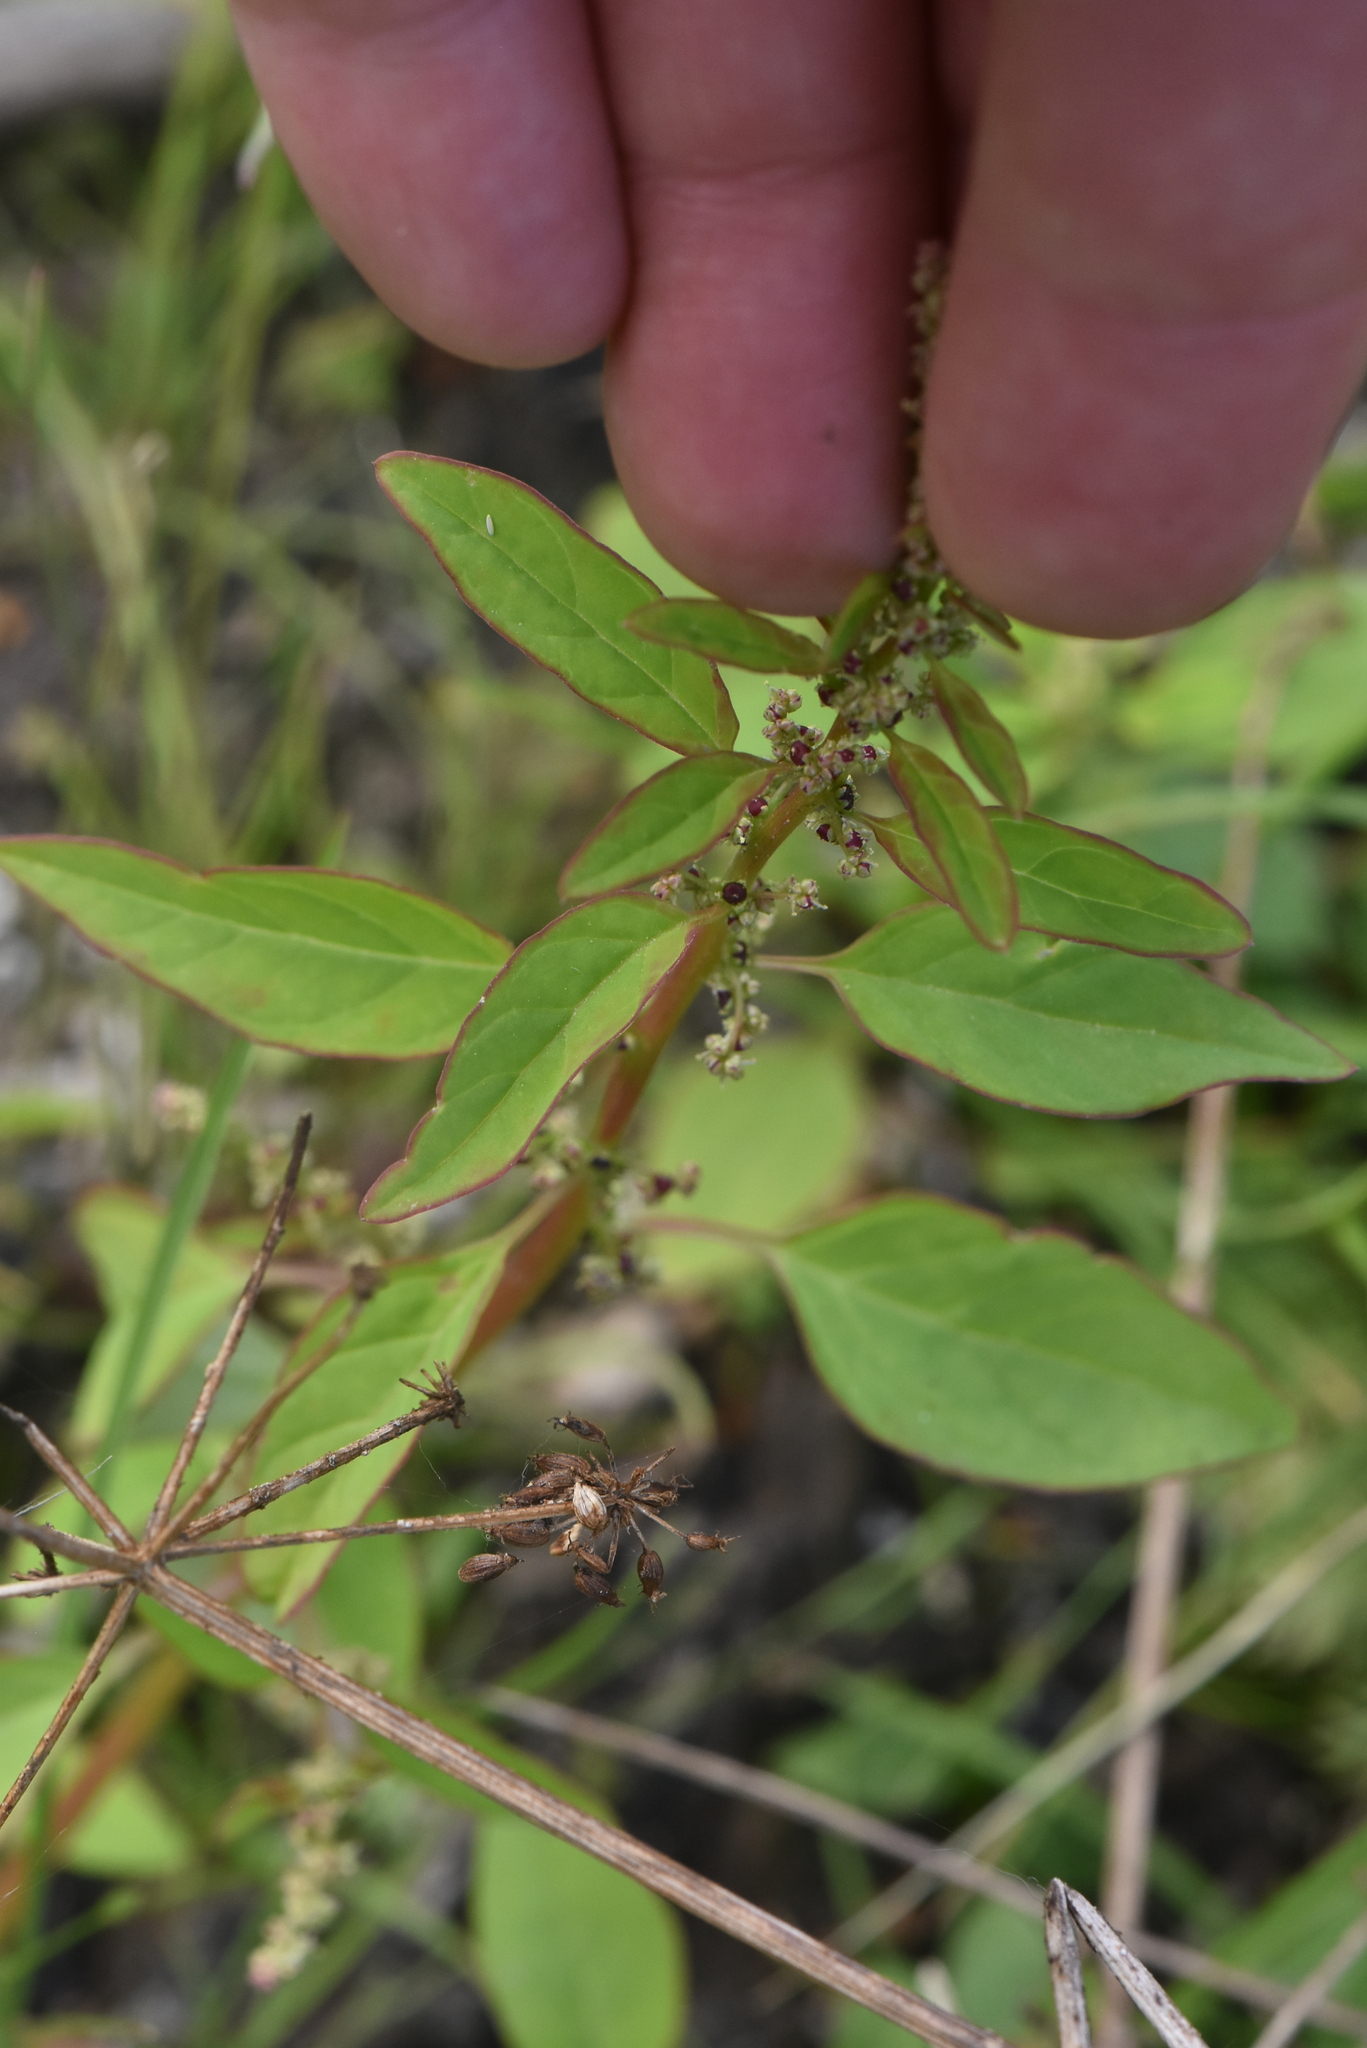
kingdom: Plantae
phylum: Tracheophyta
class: Magnoliopsida
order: Caryophyllales
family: Amaranthaceae
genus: Lipandra
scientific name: Lipandra polysperma
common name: Many-seed goosefoot
